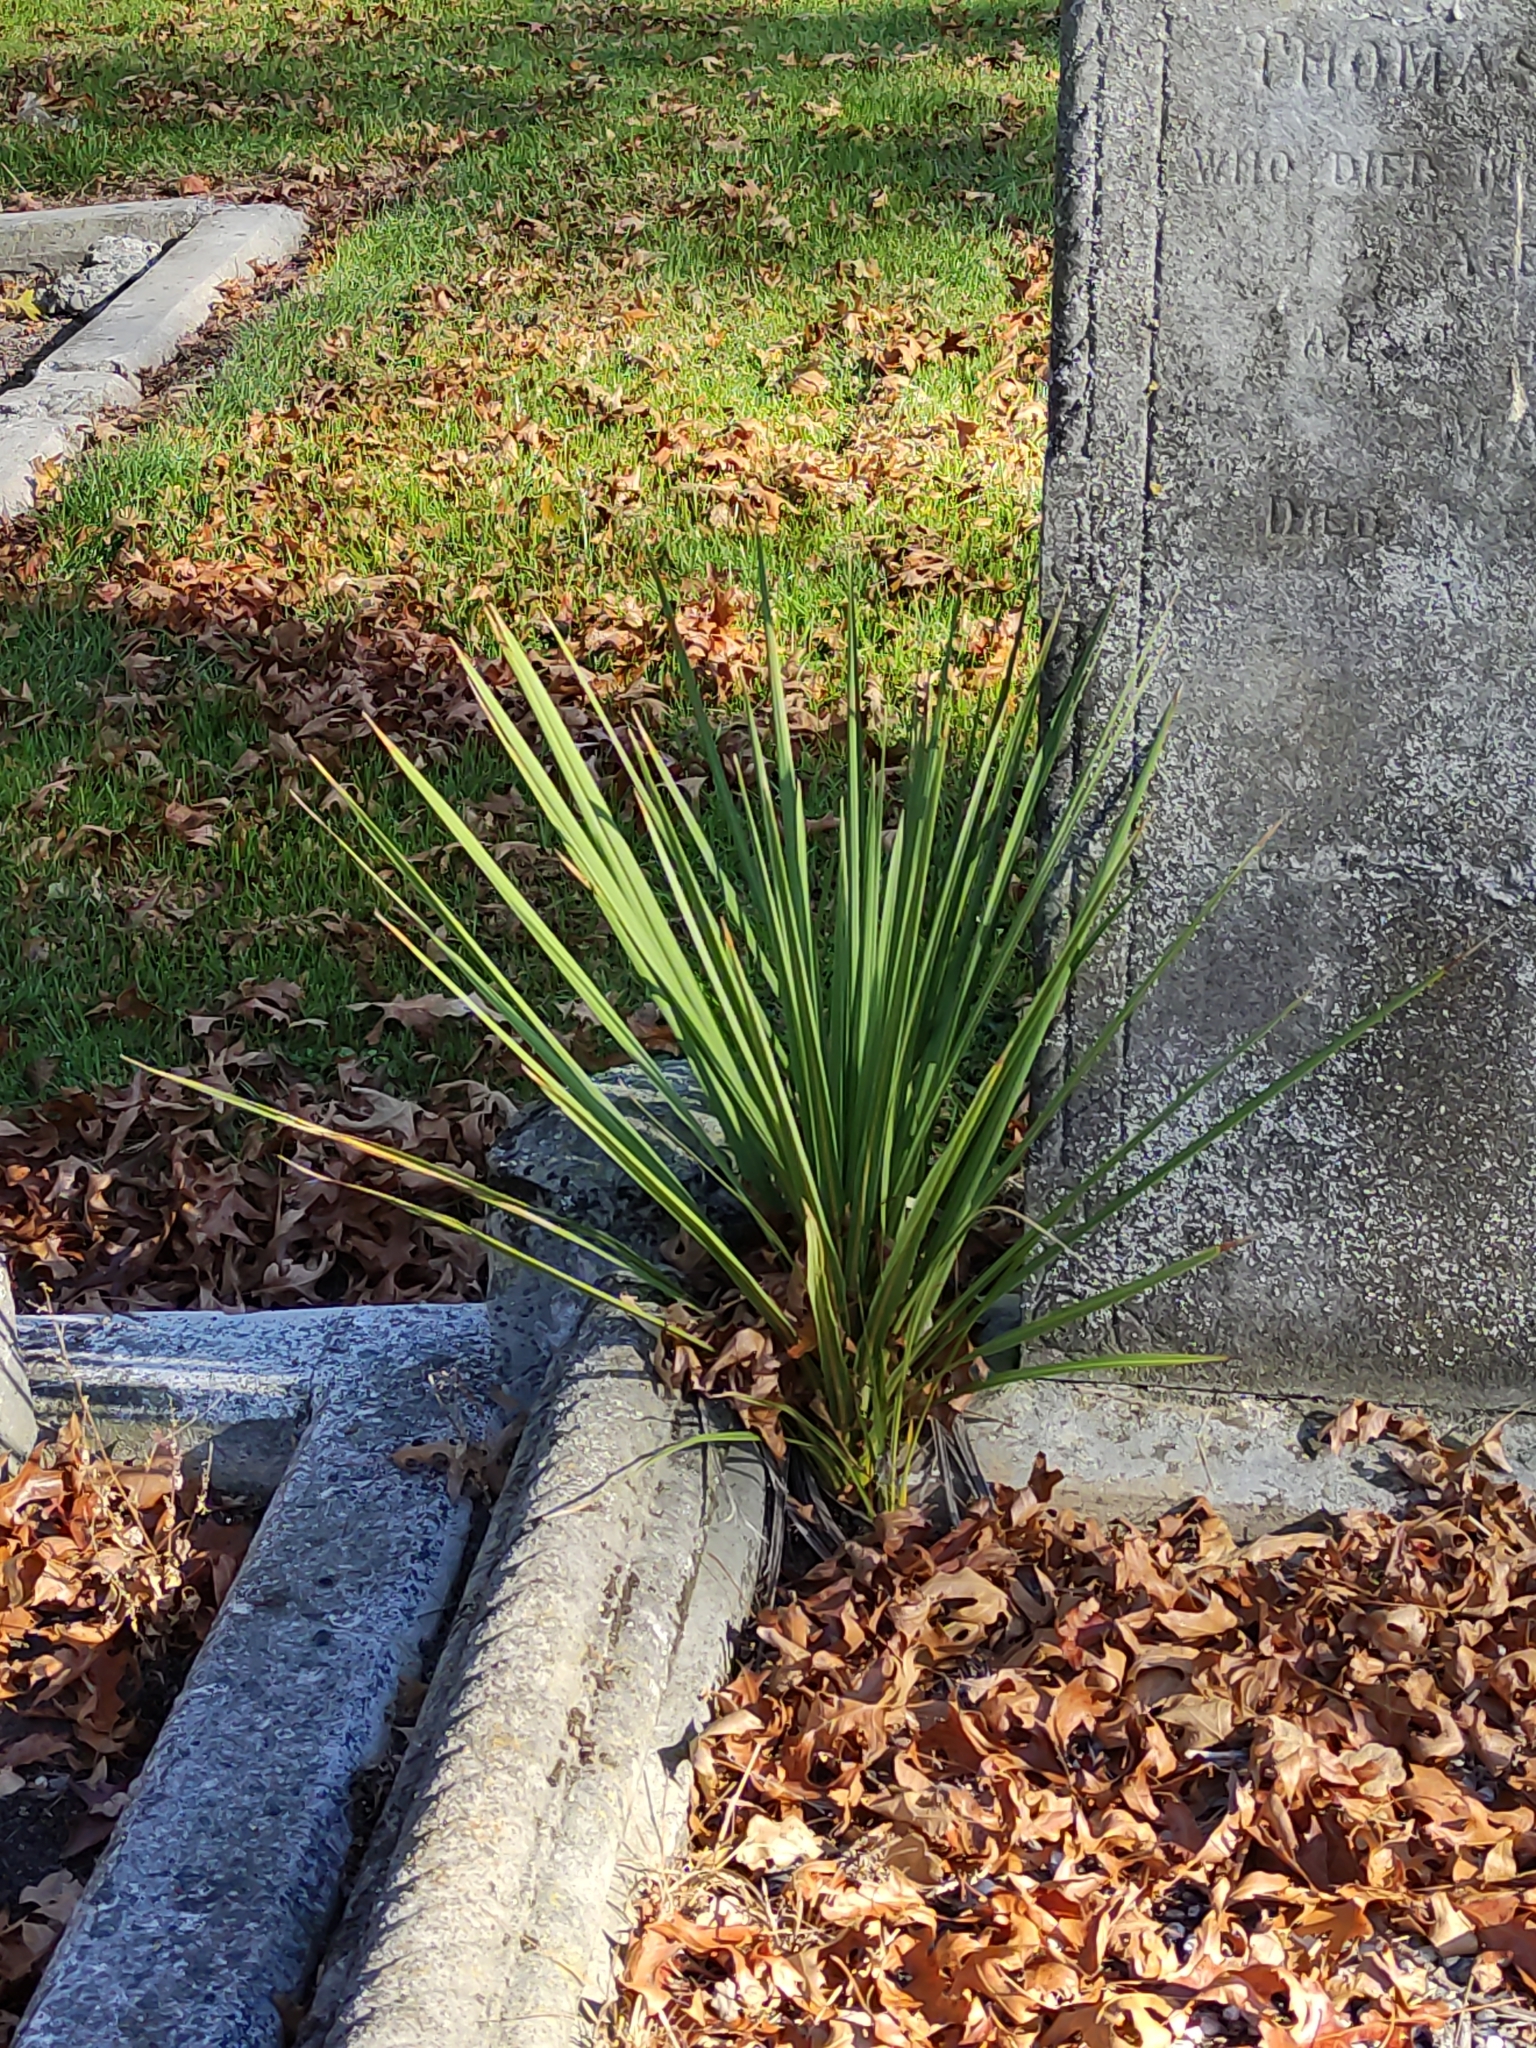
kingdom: Plantae
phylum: Tracheophyta
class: Liliopsida
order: Asparagales
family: Asparagaceae
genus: Cordyline
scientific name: Cordyline australis
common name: Cabbage-palm
